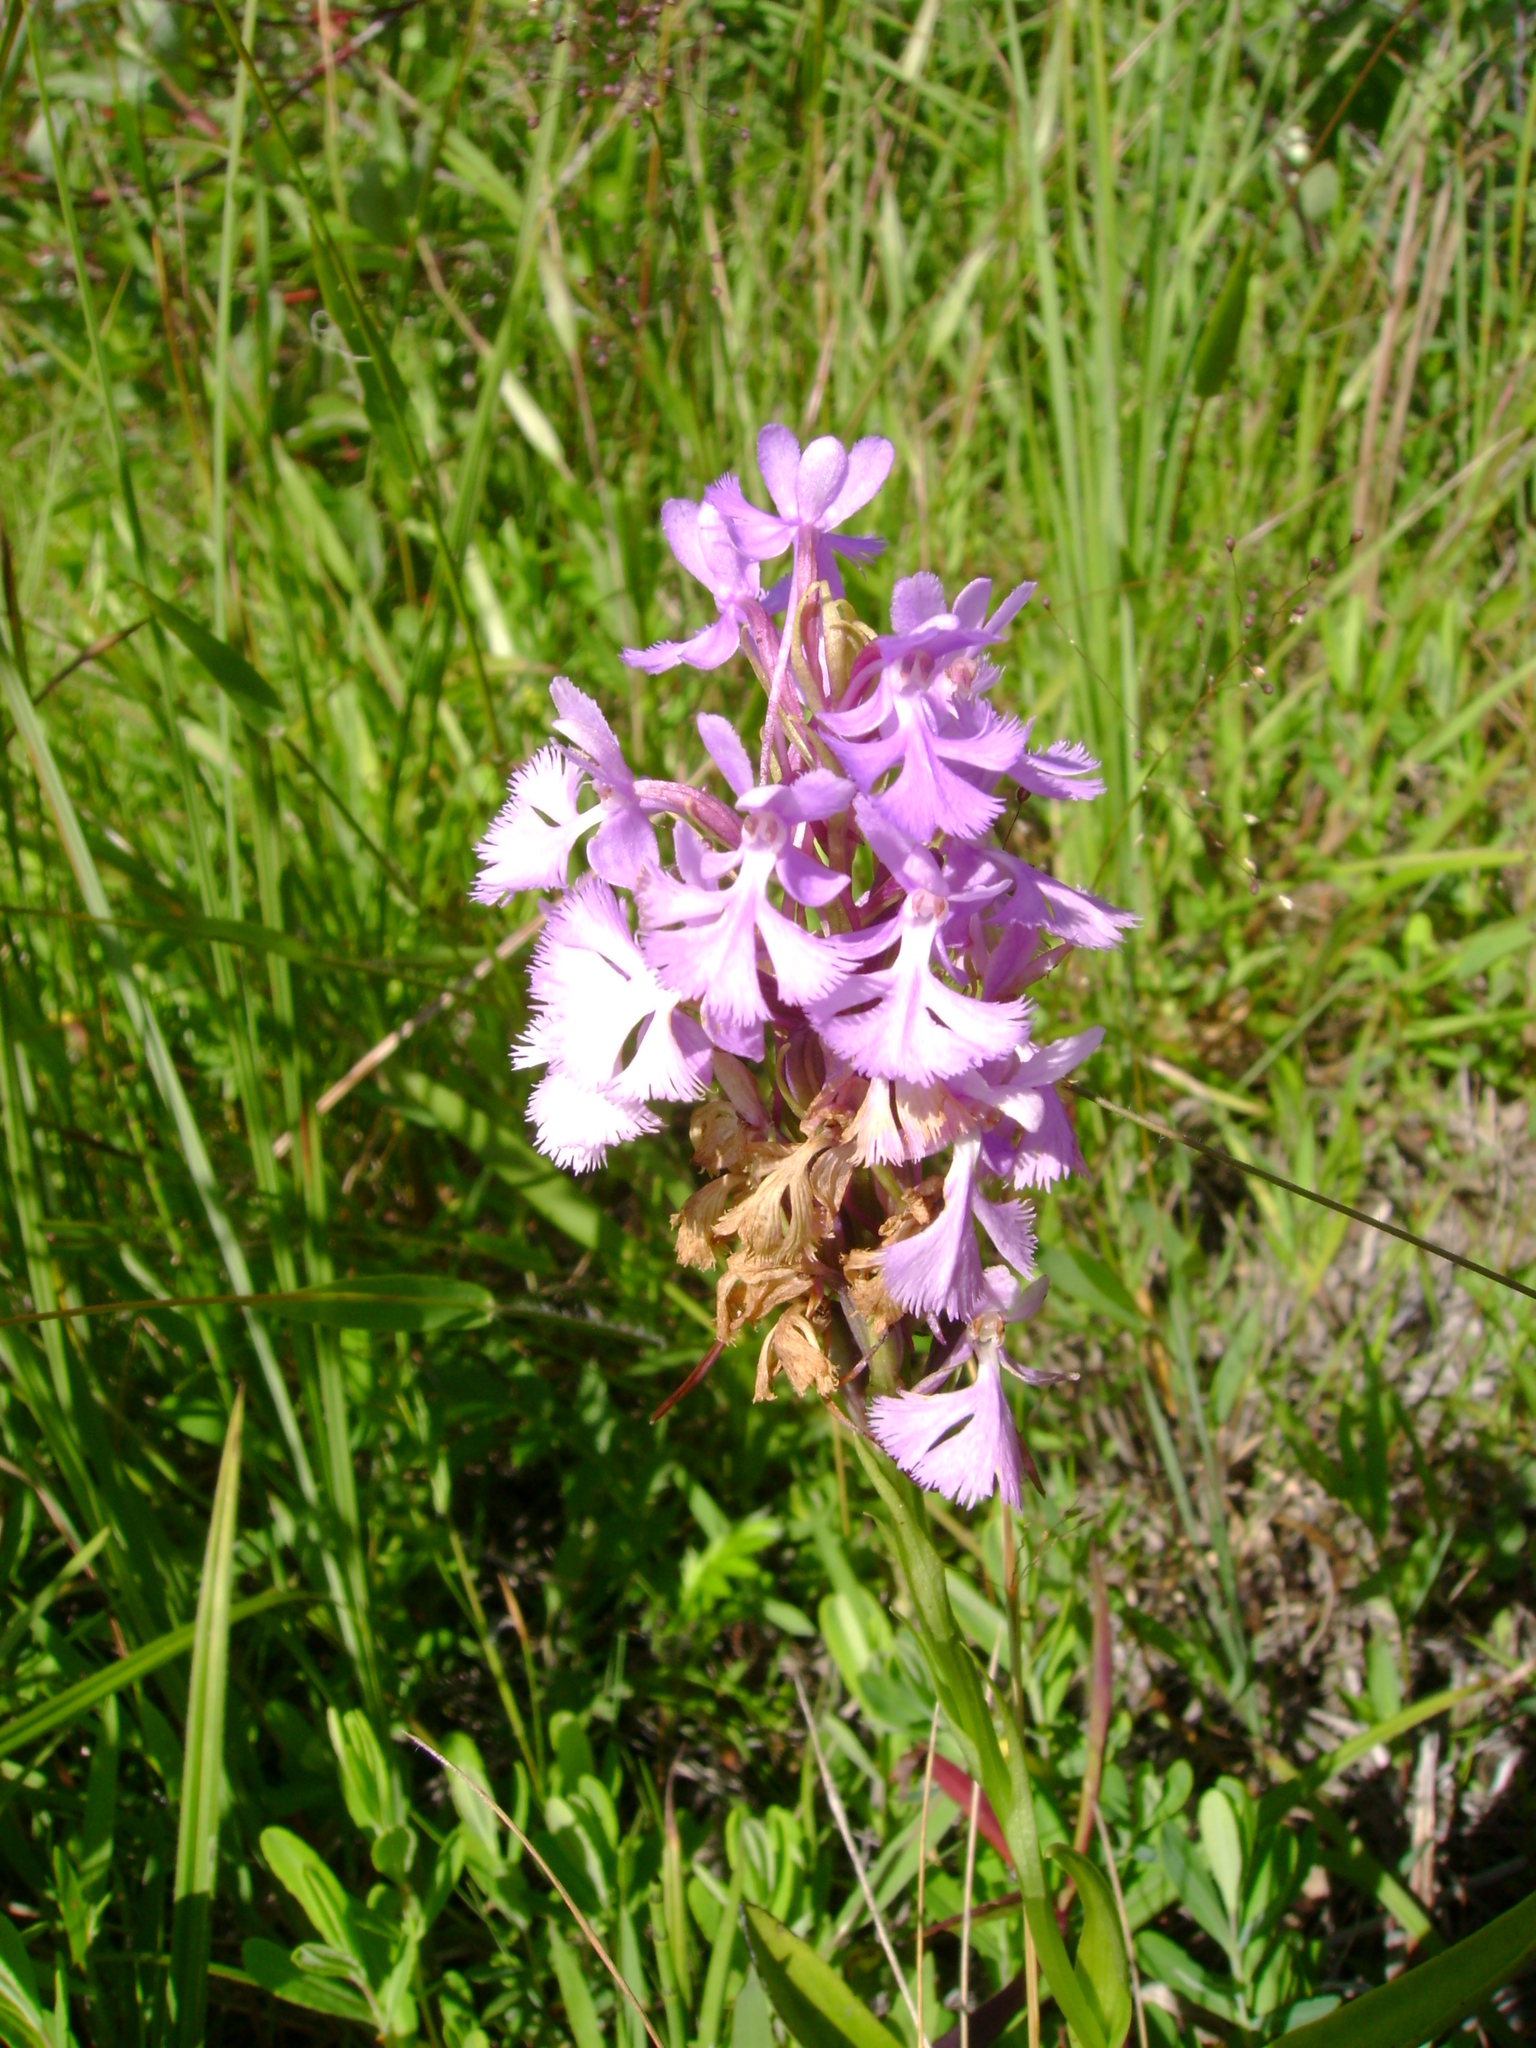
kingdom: Plantae
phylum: Tracheophyta
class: Liliopsida
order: Asparagales
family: Orchidaceae
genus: Platanthera
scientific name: Platanthera psycodes
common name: Lesser purple fringed orchid
